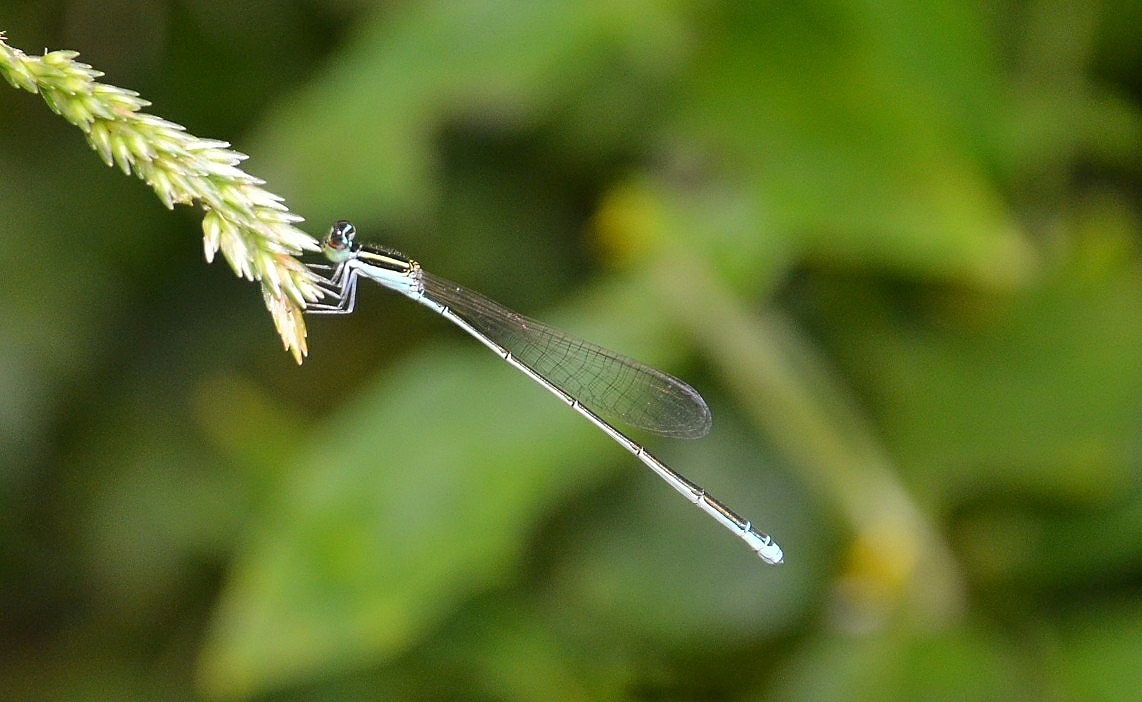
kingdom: Animalia
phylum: Arthropoda
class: Insecta
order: Odonata
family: Coenagrionidae
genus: Aciagrion
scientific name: Aciagrion occidentale
